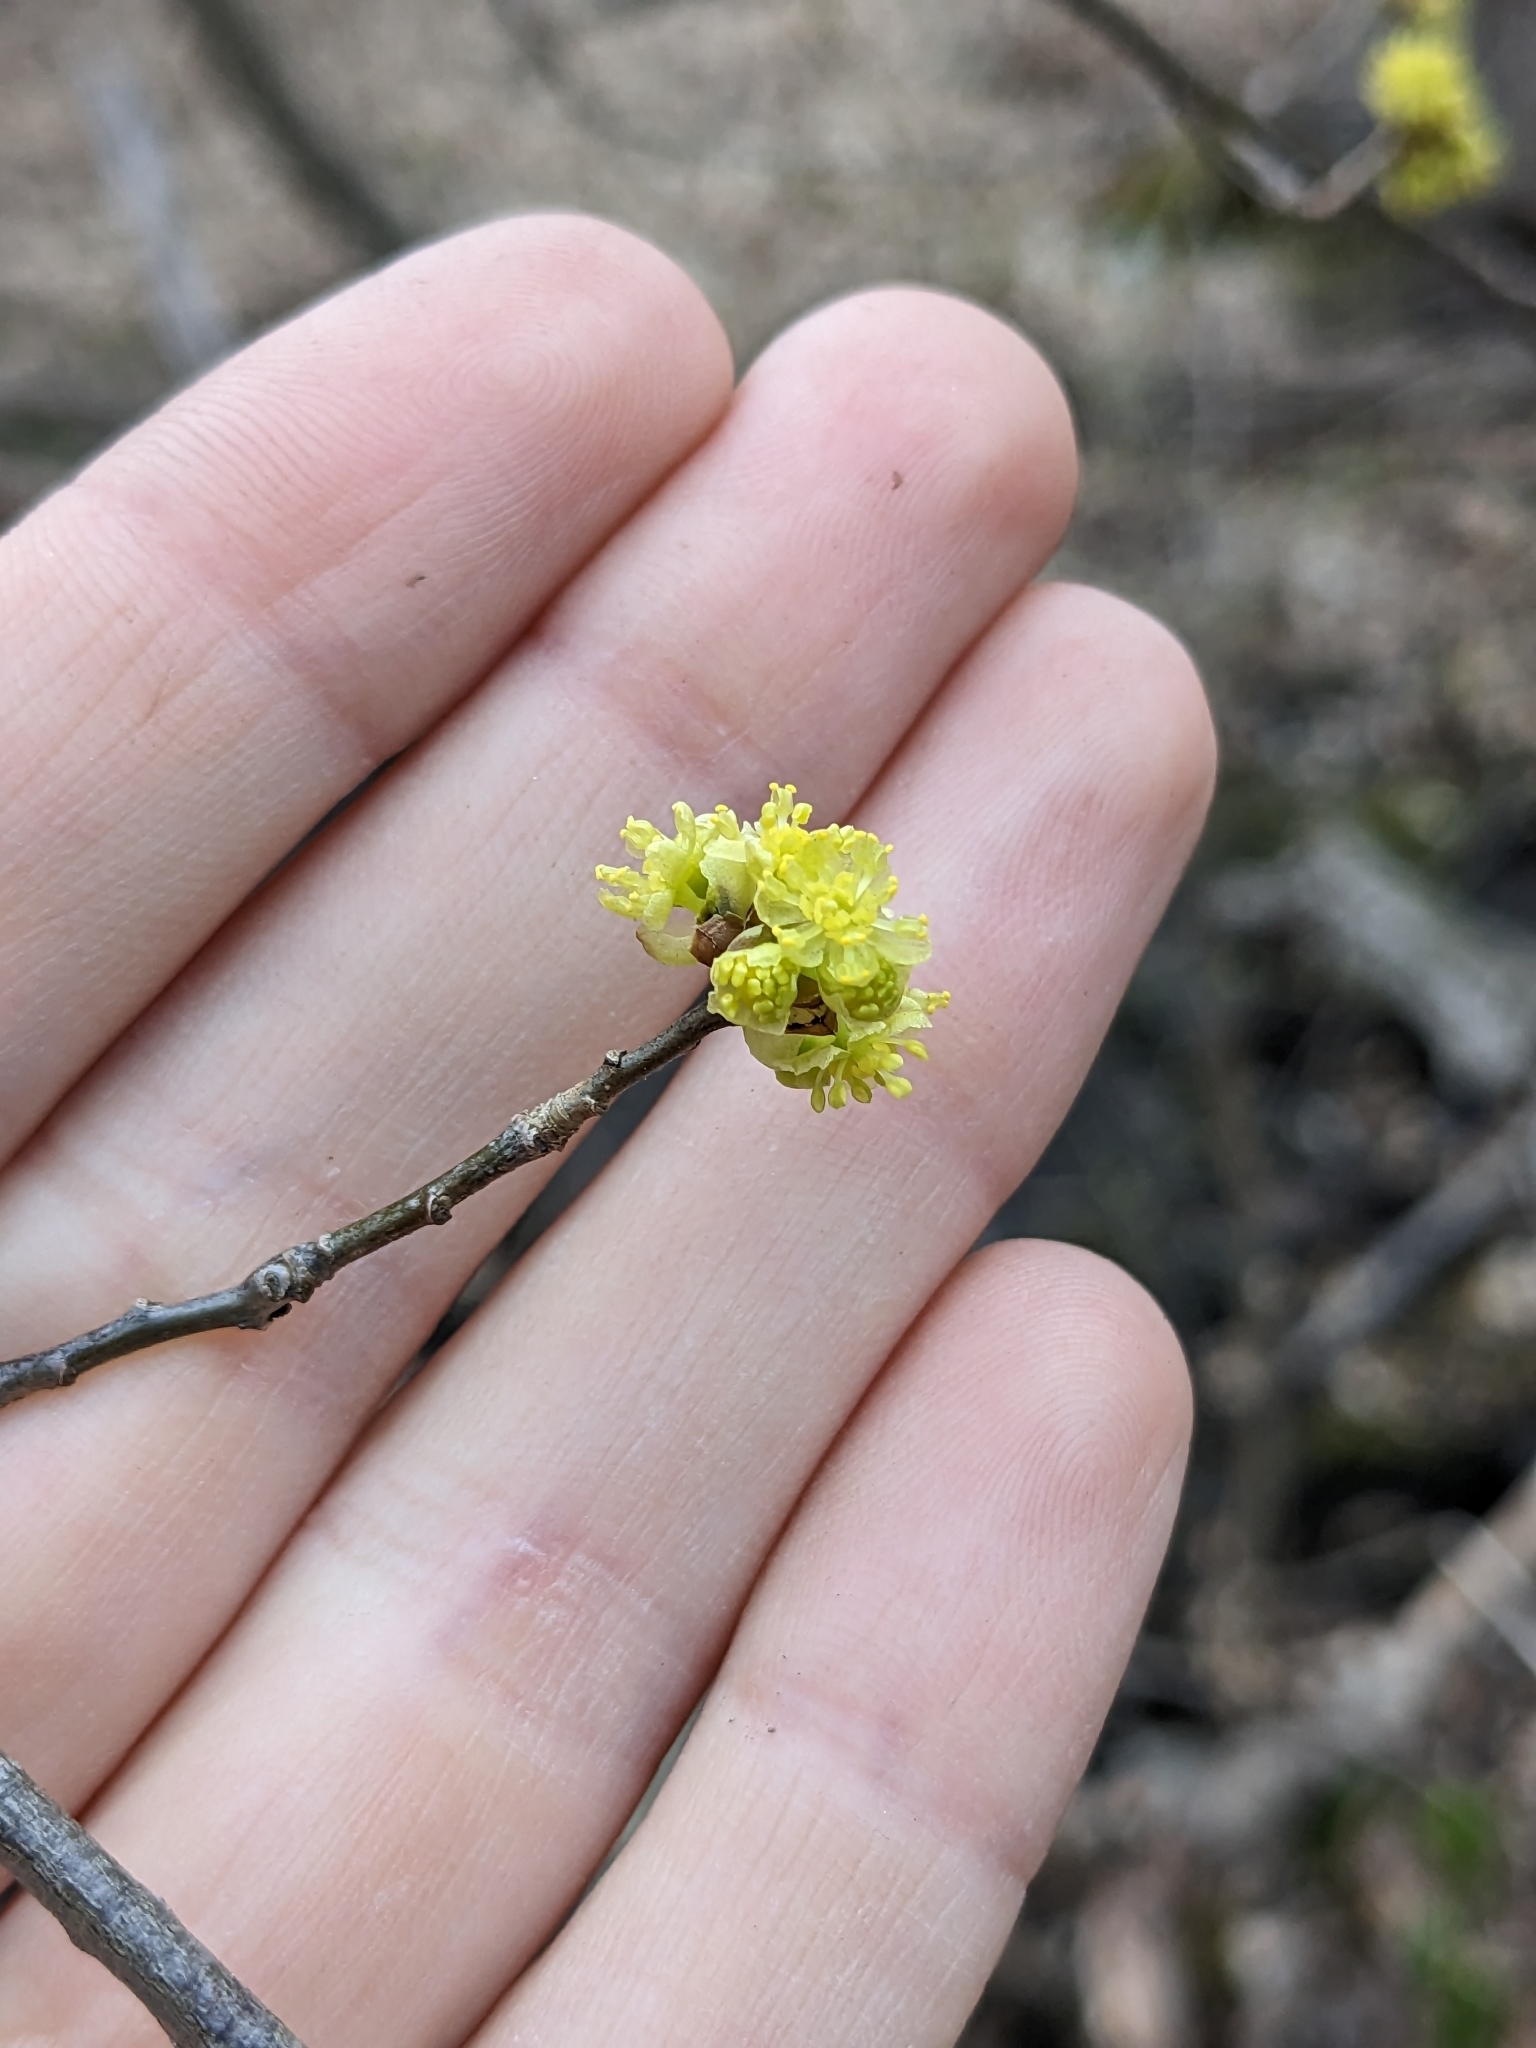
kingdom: Plantae
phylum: Tracheophyta
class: Magnoliopsida
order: Laurales
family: Lauraceae
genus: Lindera
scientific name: Lindera benzoin
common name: Spicebush
